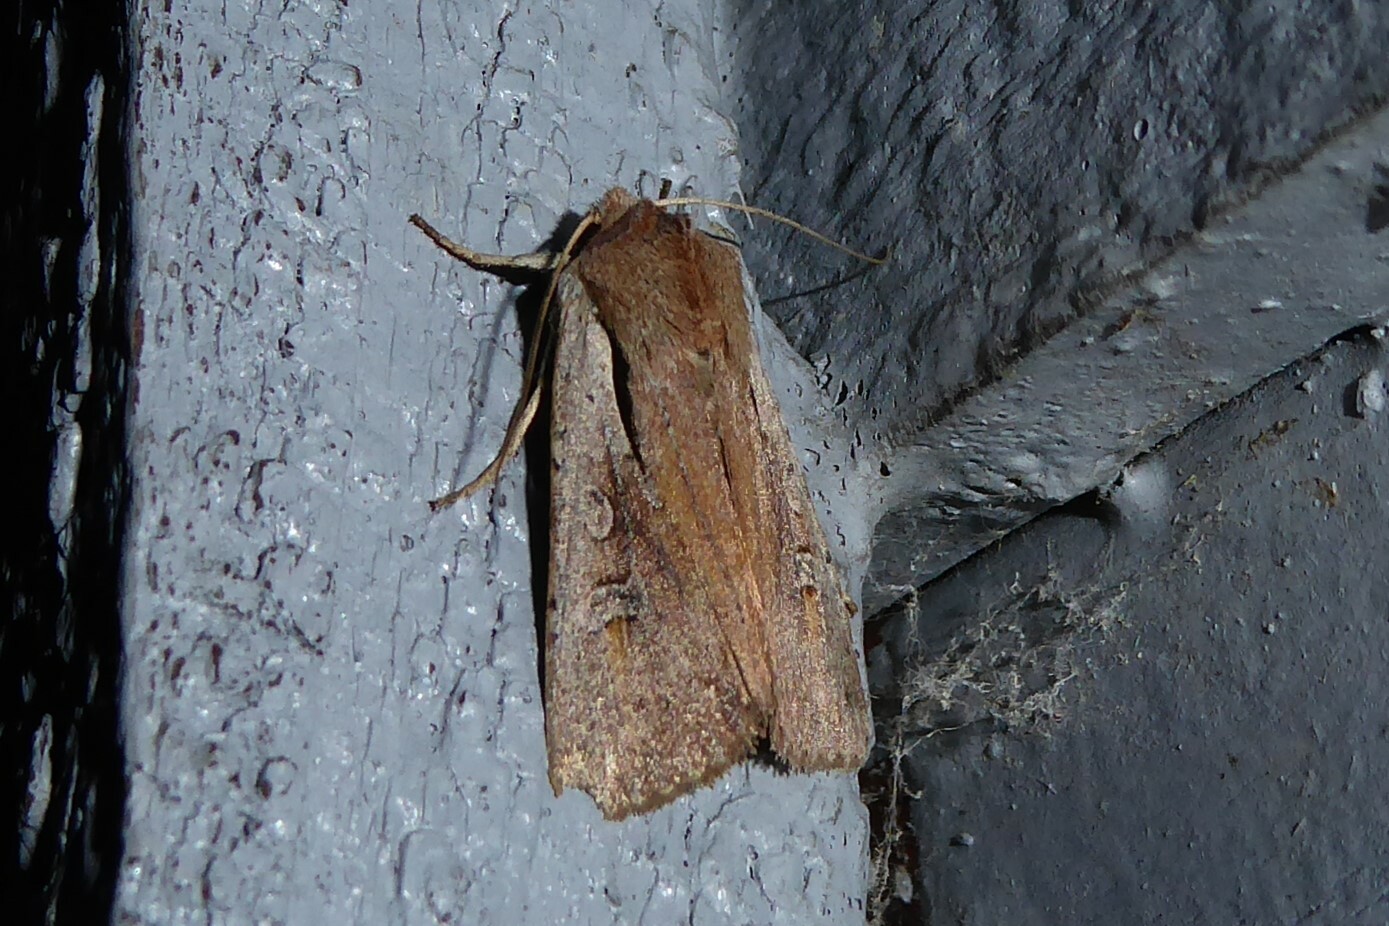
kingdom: Animalia
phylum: Arthropoda
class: Insecta
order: Lepidoptera
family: Noctuidae
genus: Ichneutica
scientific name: Ichneutica atristriga
